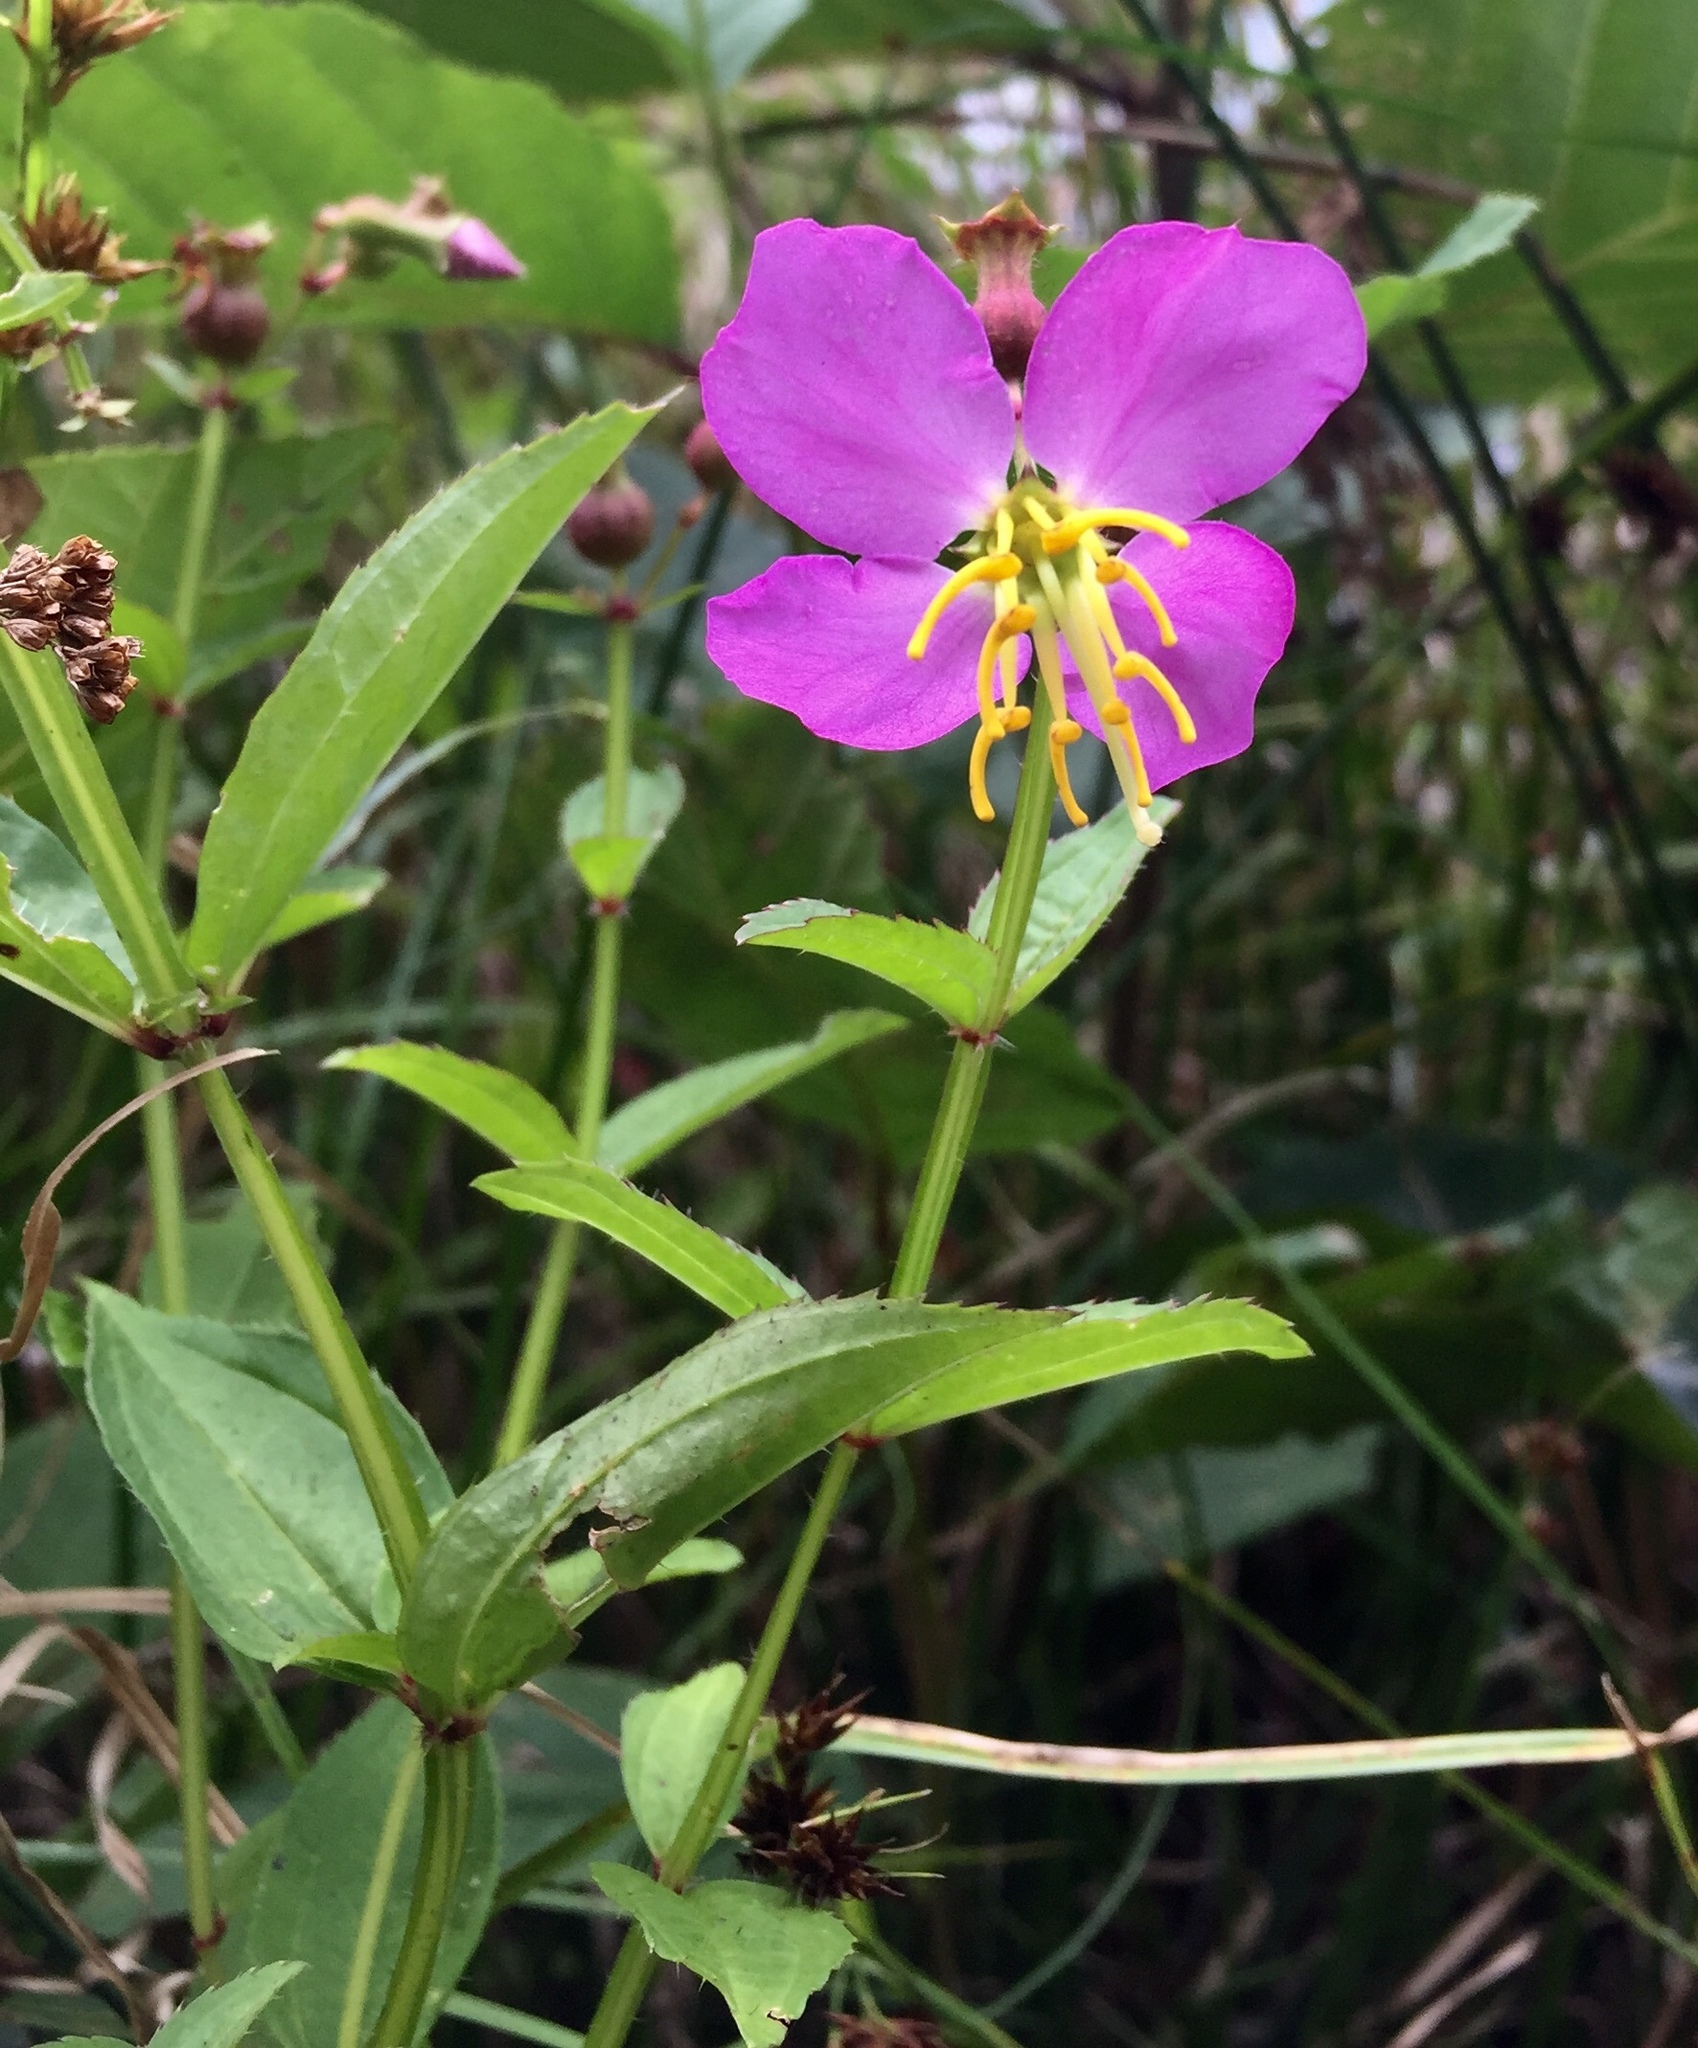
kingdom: Plantae
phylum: Tracheophyta
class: Magnoliopsida
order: Myrtales
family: Melastomataceae
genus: Rhexia
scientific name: Rhexia virginica
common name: Common meadow beauty
